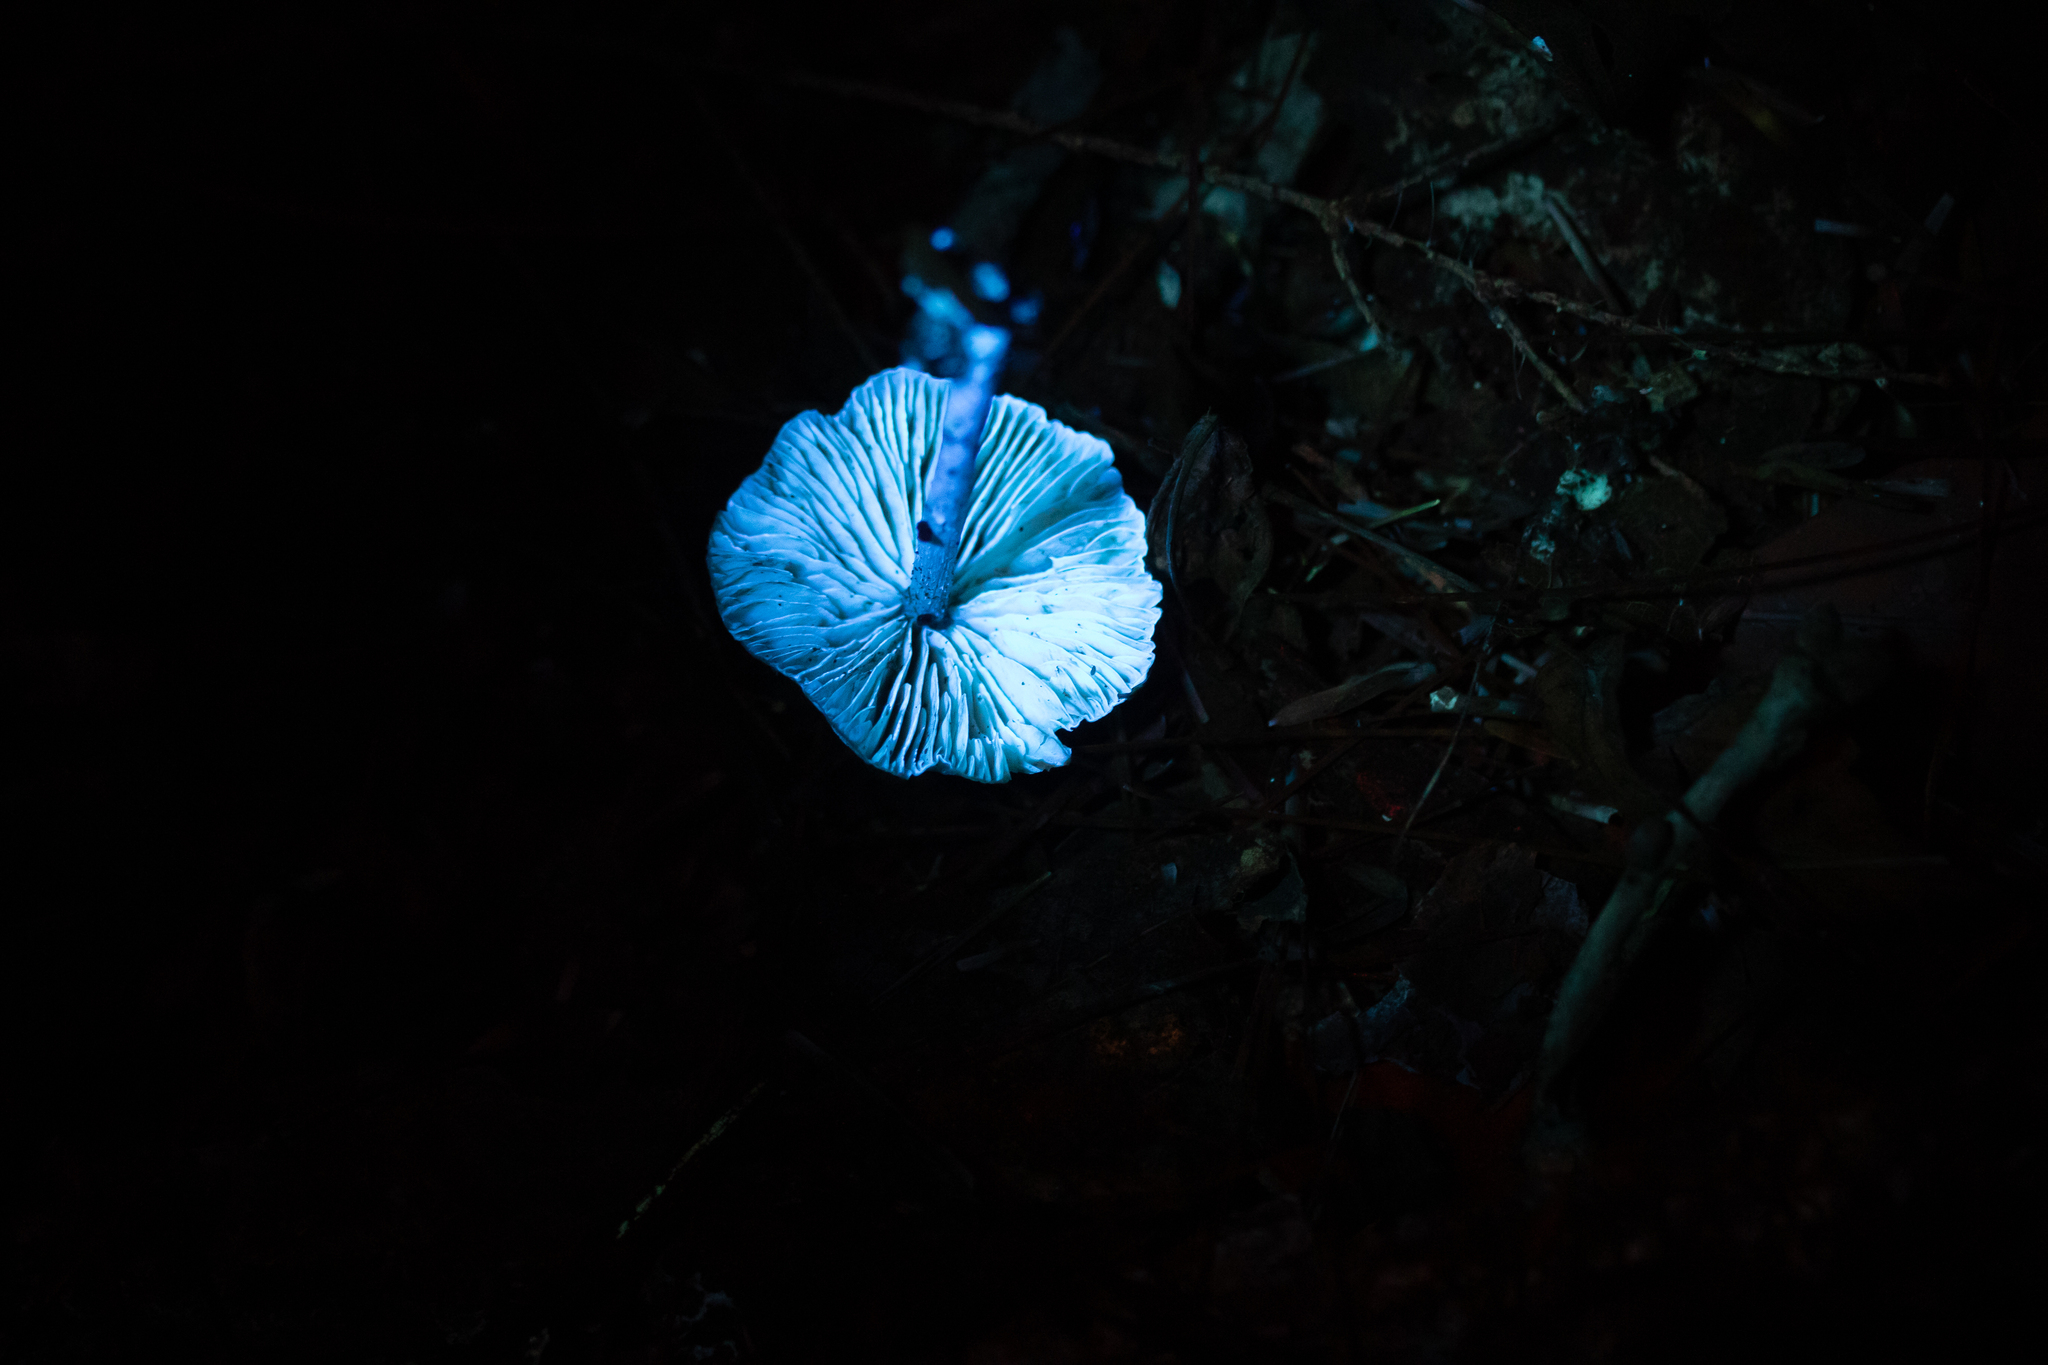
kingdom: Fungi
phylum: Basidiomycota
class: Agaricomycetes
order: Agaricales
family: Entolomataceae
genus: Entoloma
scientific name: Entoloma alboumbonatum
